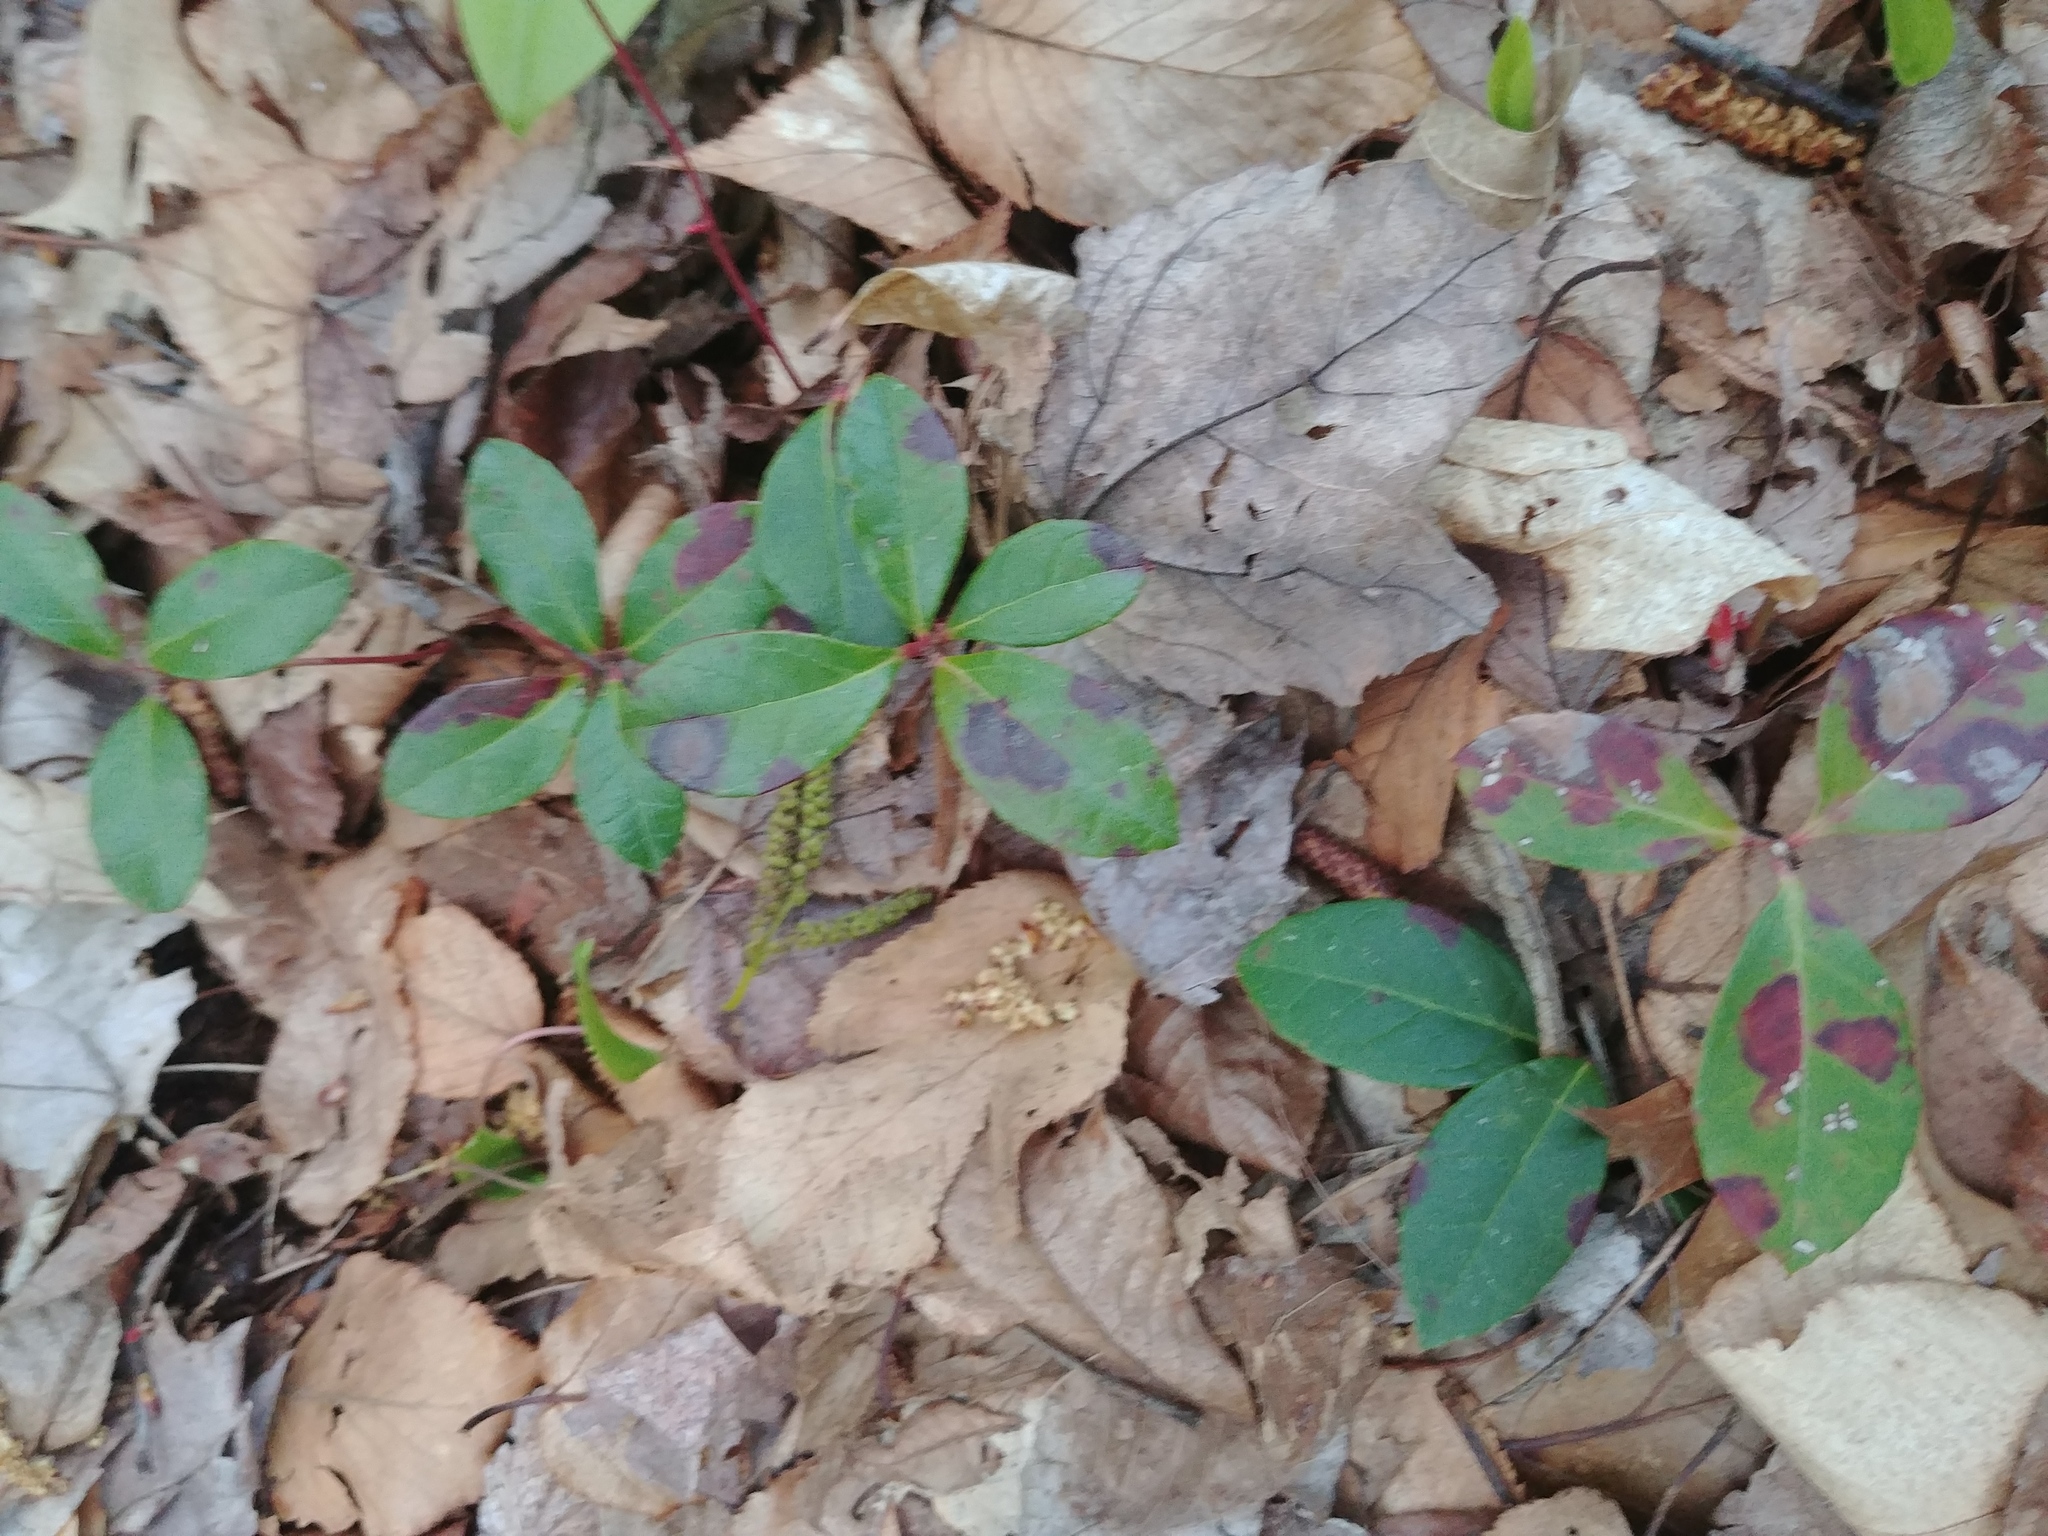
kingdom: Plantae
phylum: Tracheophyta
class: Magnoliopsida
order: Ericales
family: Ericaceae
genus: Gaultheria
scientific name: Gaultheria procumbens
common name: Checkerberry
